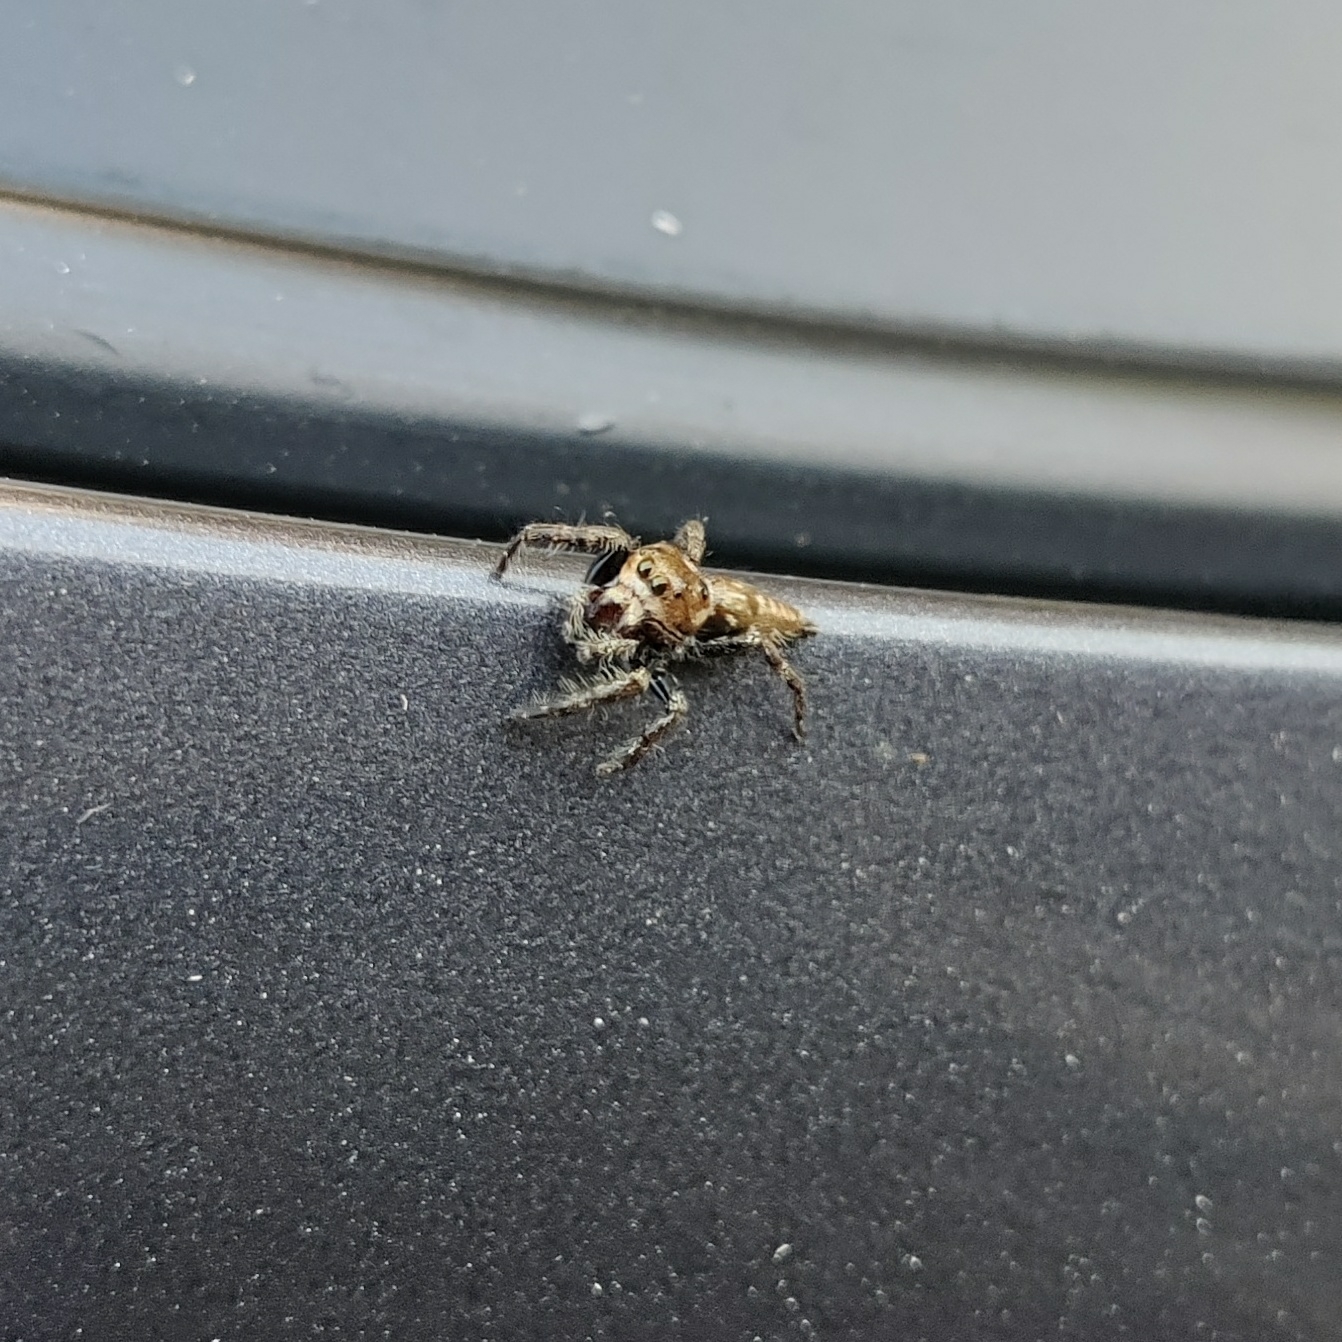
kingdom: Animalia
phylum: Arthropoda
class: Arachnida
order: Araneae
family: Salticidae
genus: Hyllus
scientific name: Hyllus semicupreus
